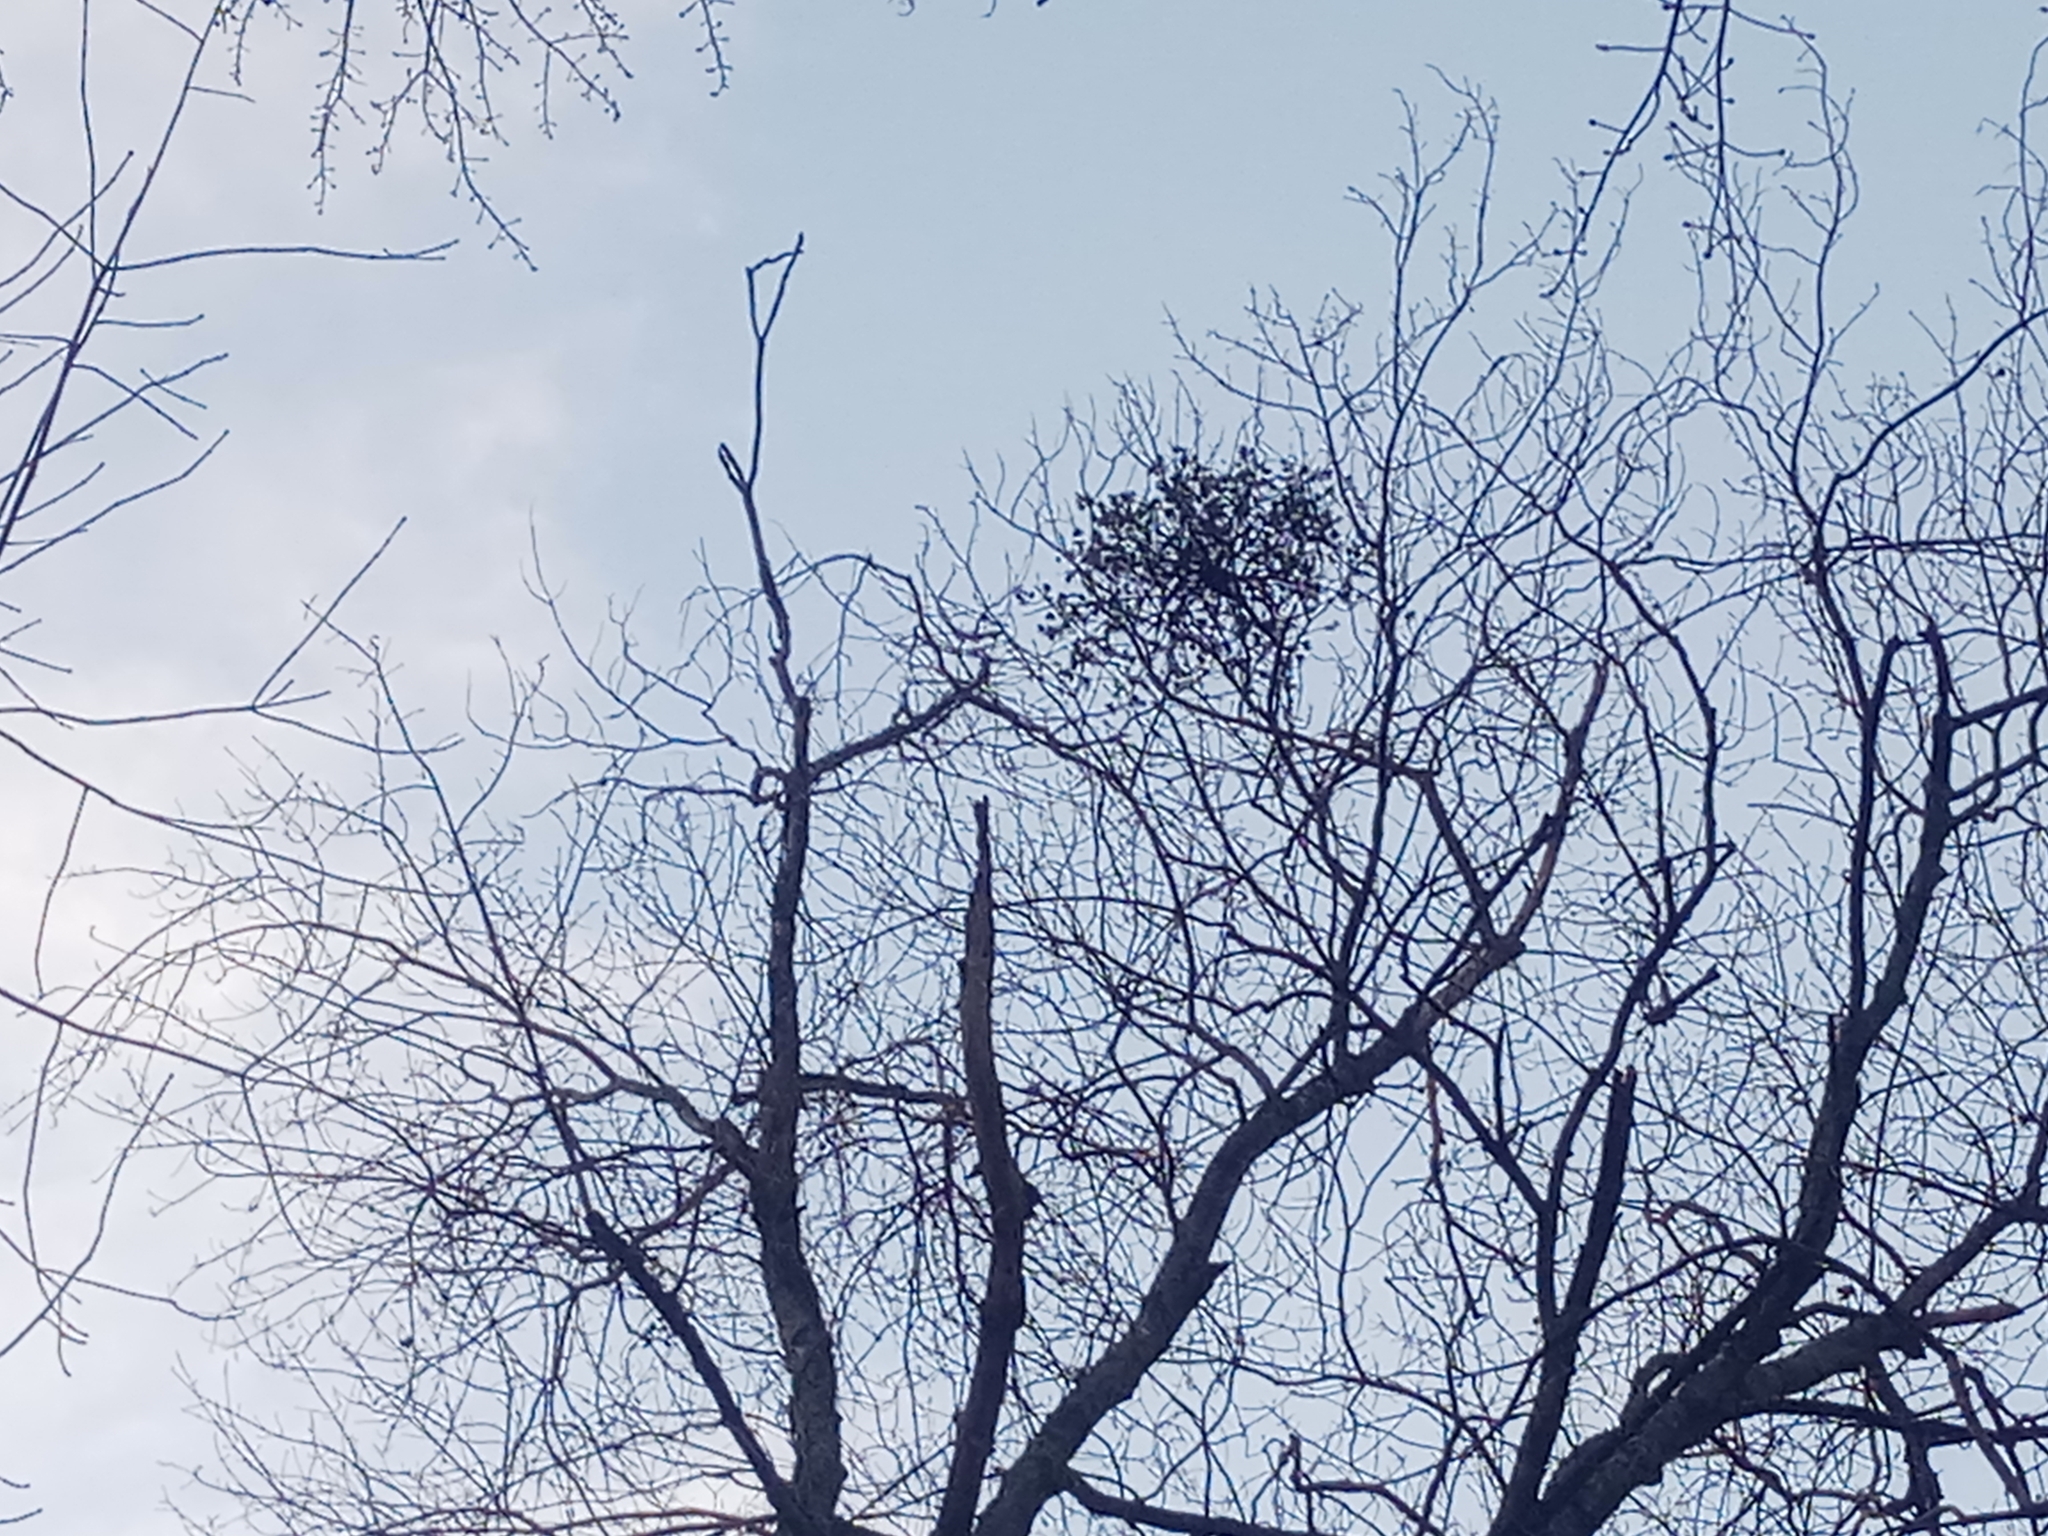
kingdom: Plantae
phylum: Tracheophyta
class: Magnoliopsida
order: Santalales
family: Viscaceae
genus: Phoradendron
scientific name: Phoradendron leucarpum
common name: Pacific mistletoe
